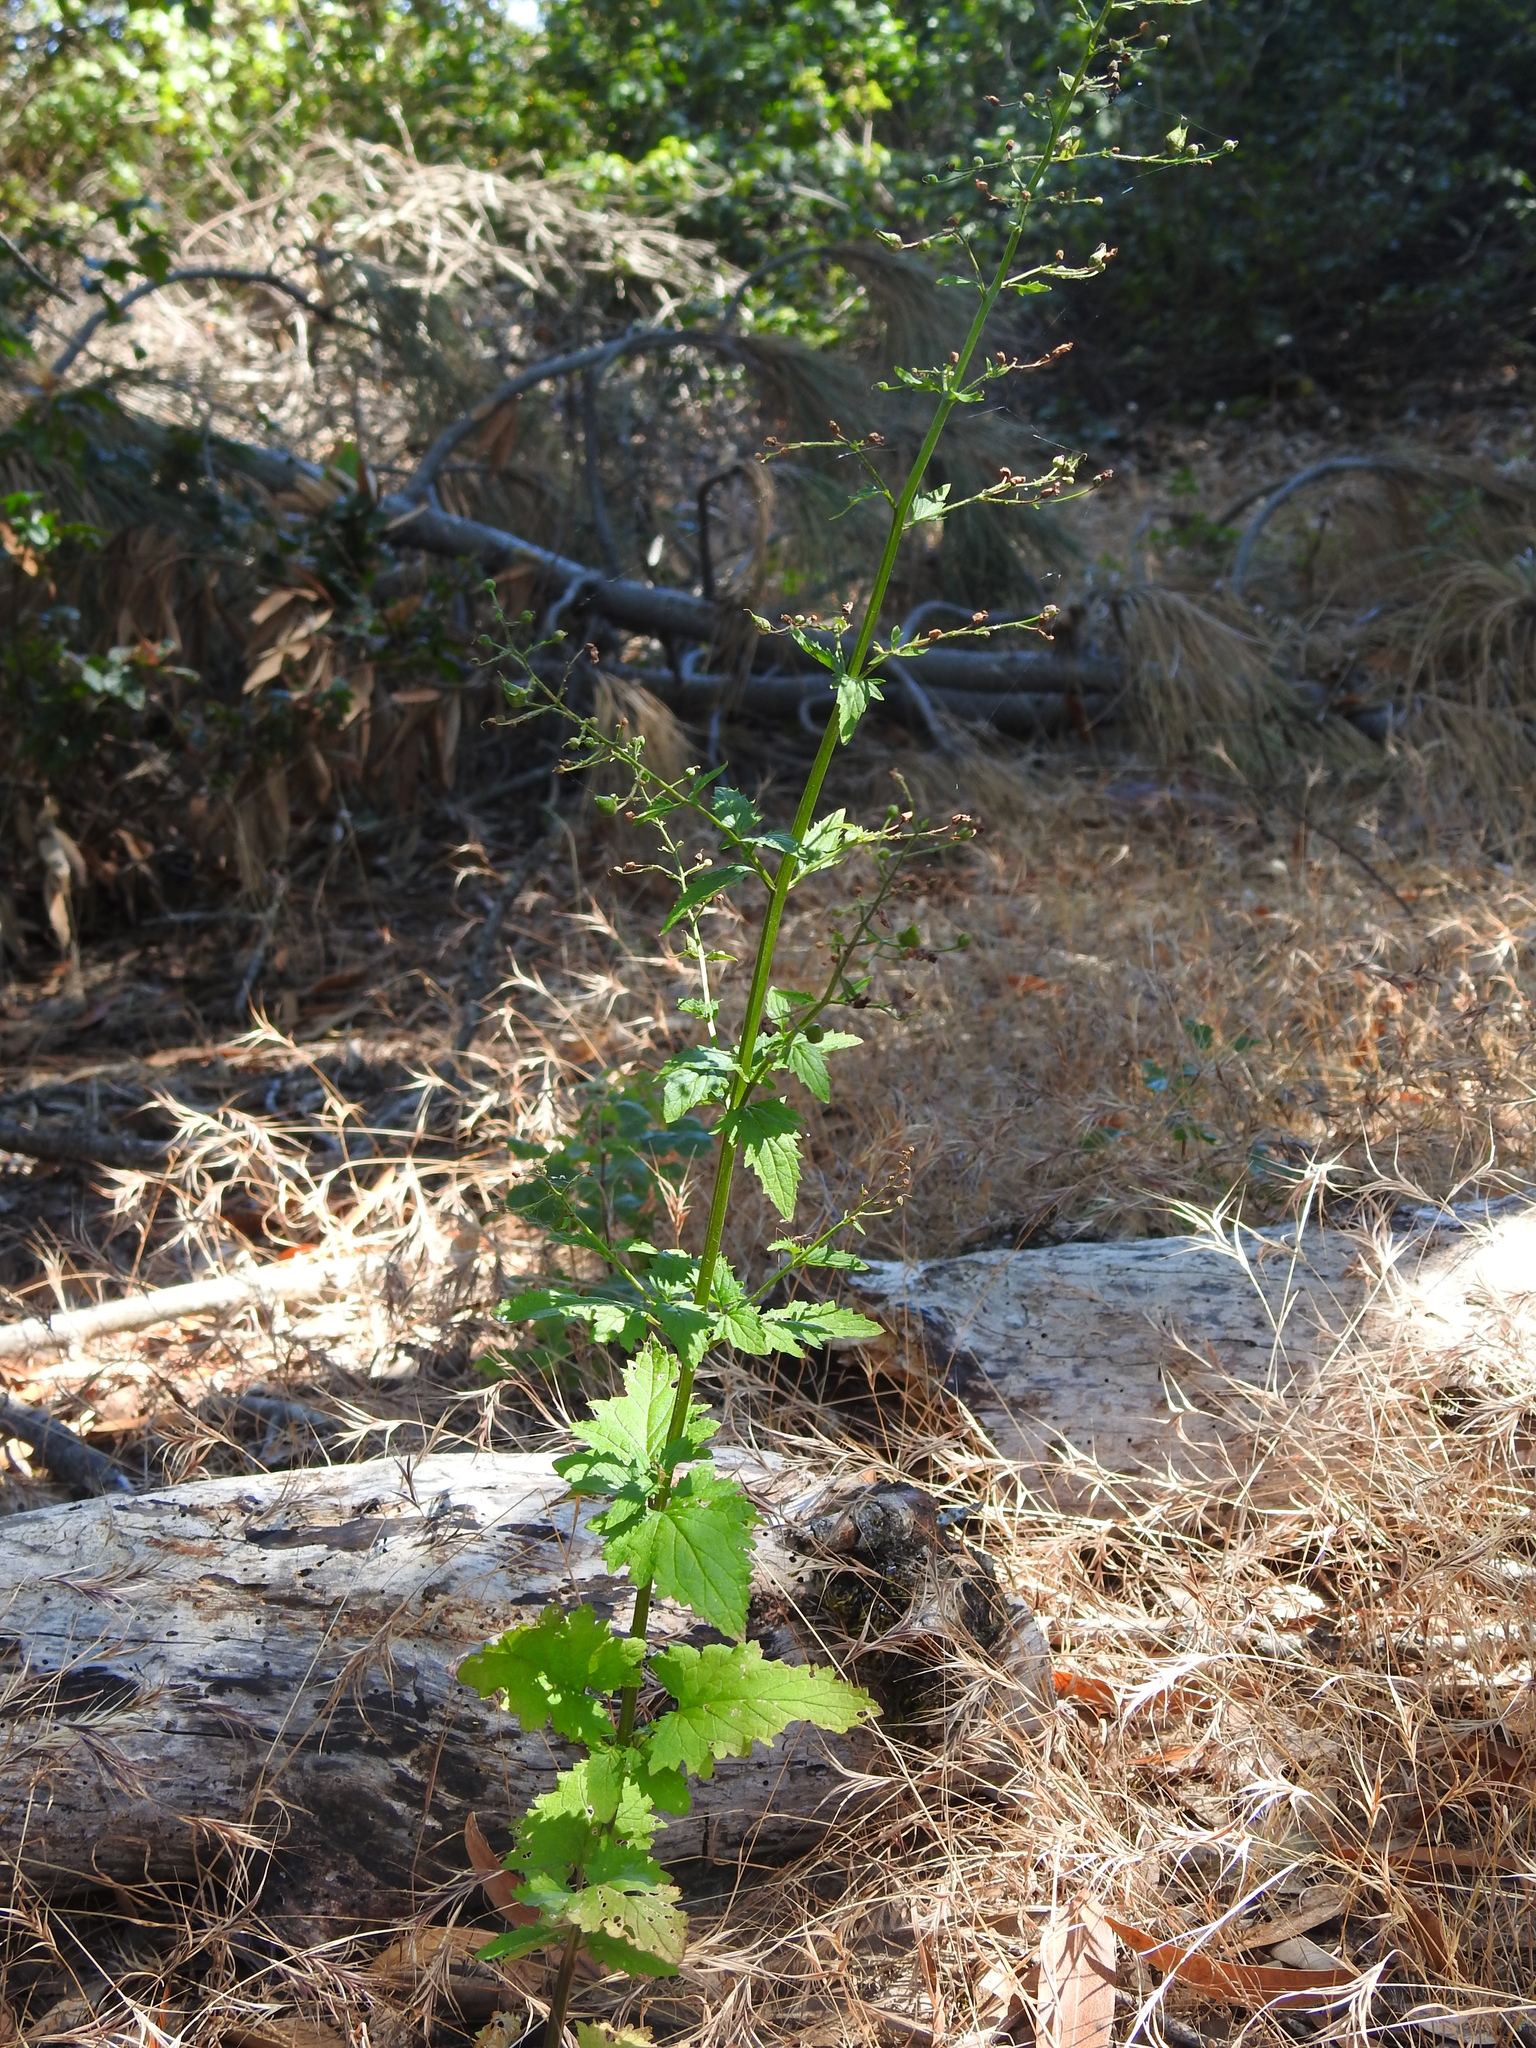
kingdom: Plantae
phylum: Tracheophyta
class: Magnoliopsida
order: Lamiales
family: Scrophulariaceae
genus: Scrophularia
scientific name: Scrophularia californica
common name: California figwort
